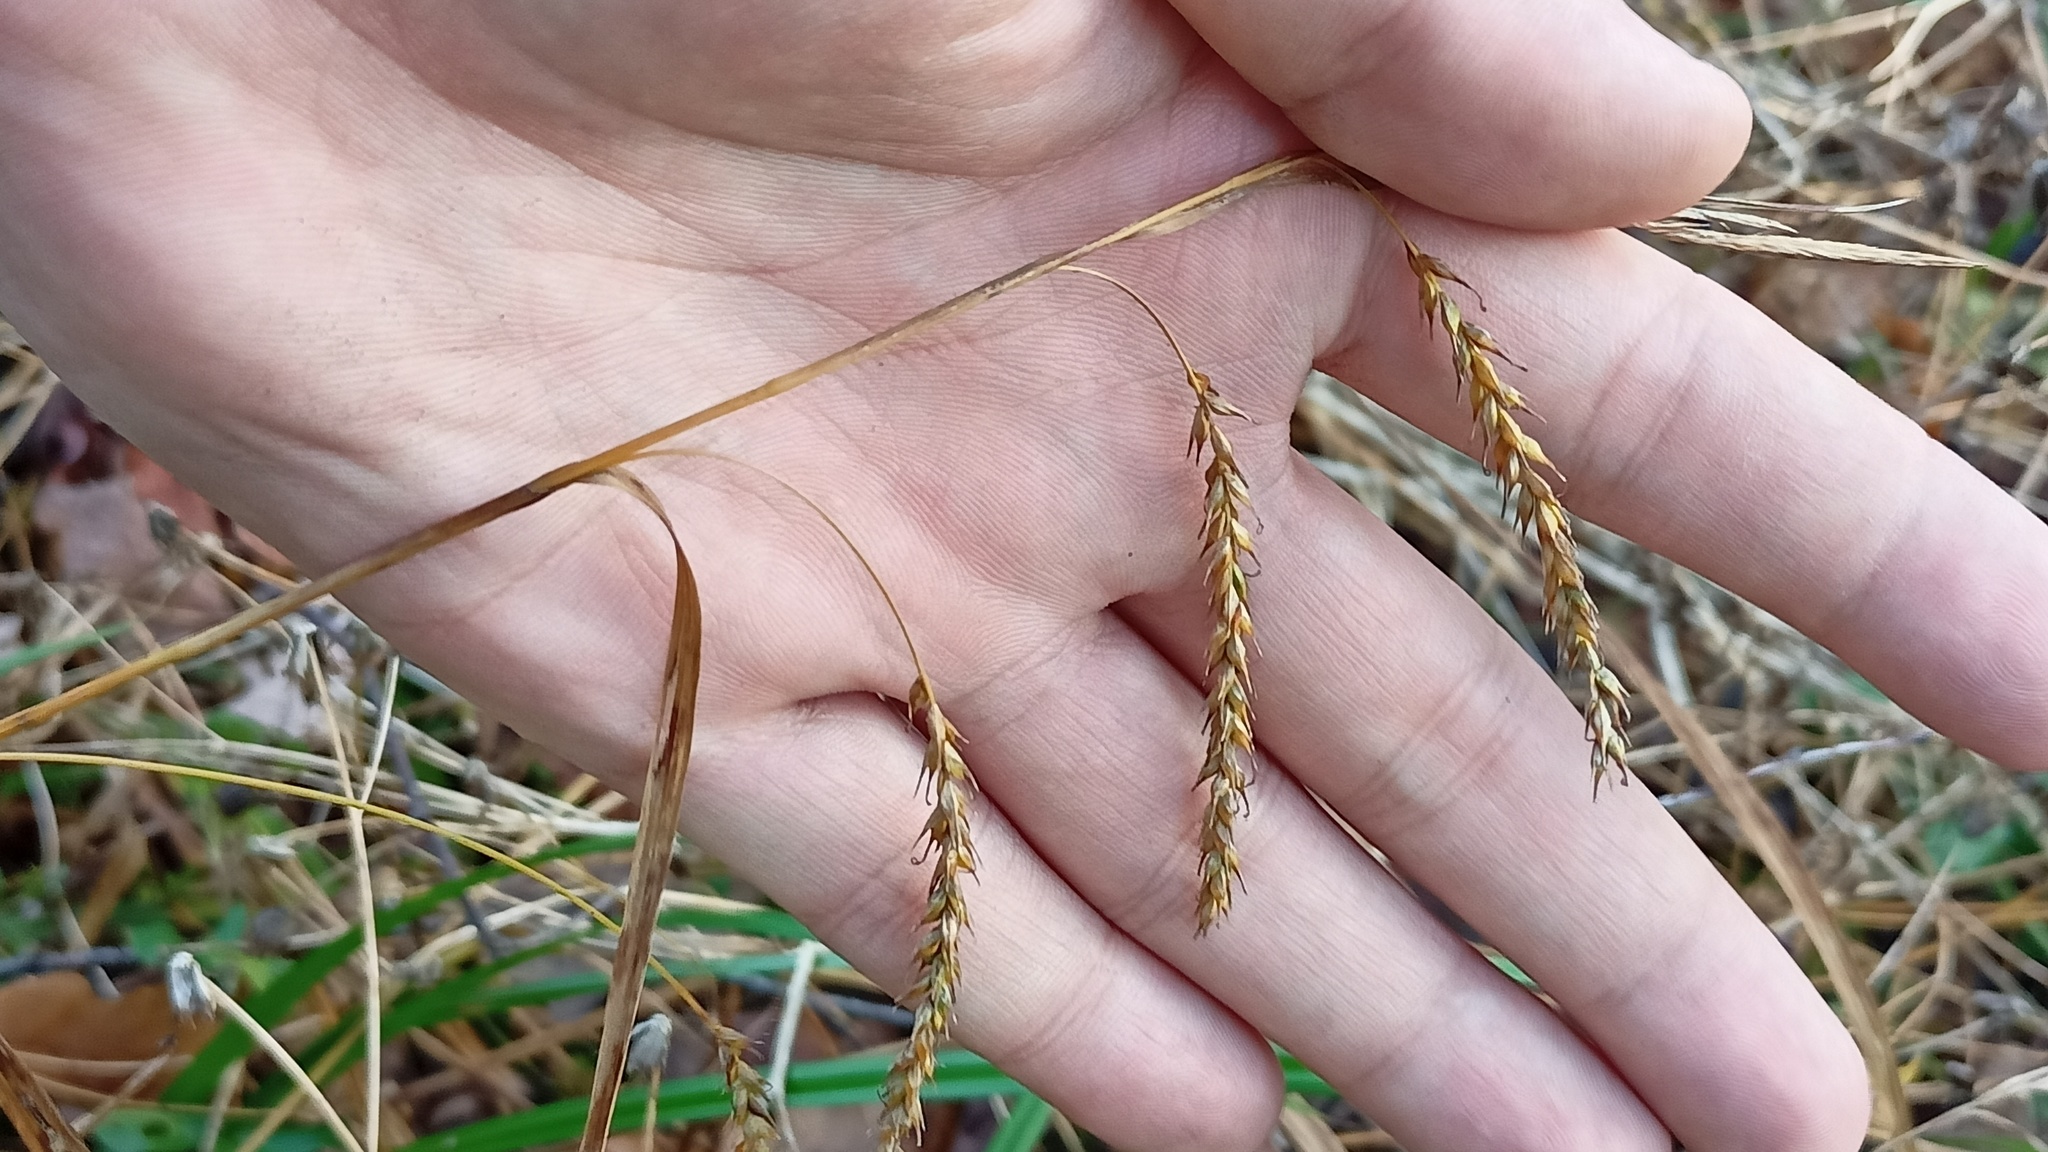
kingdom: Plantae
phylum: Tracheophyta
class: Liliopsida
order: Poales
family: Cyperaceae
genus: Carex
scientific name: Carex sylvatica
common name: Wood-sedge
